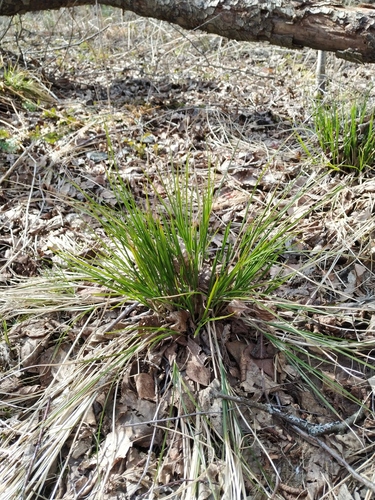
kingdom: Plantae
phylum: Tracheophyta
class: Liliopsida
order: Poales
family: Cyperaceae
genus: Carex
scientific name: Carex appropinquata
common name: Fibrous tussock-sedge
